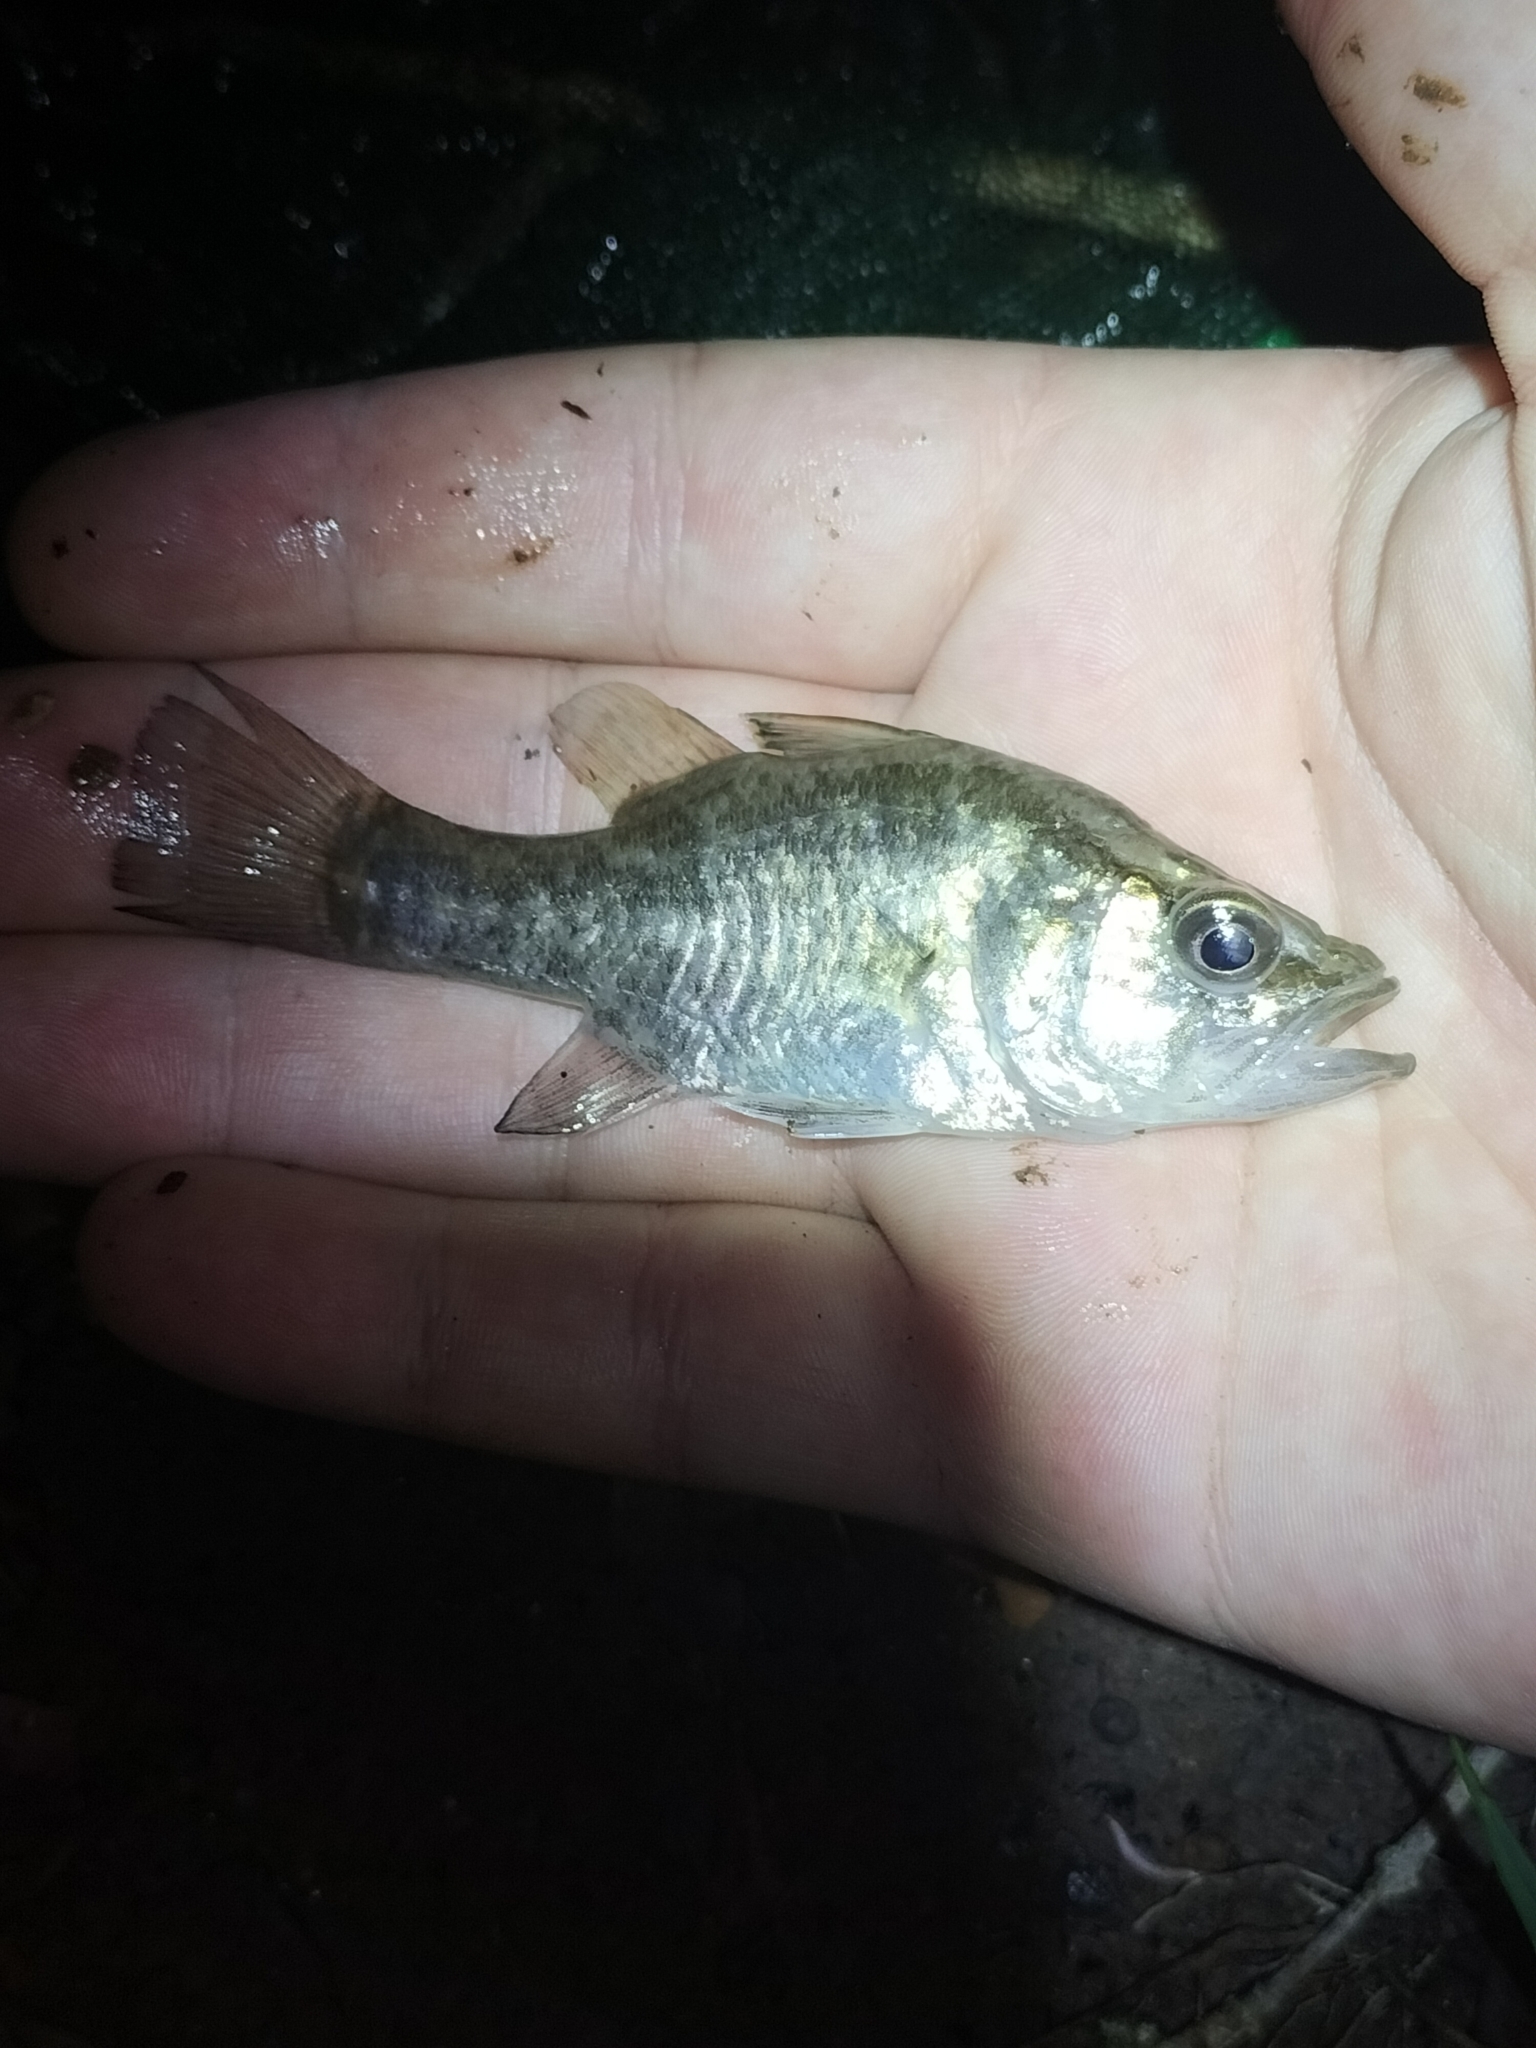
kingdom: Animalia
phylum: Chordata
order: Perciformes
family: Apogonidae
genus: Glossamia
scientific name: Glossamia aprion
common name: Mouth almighty
